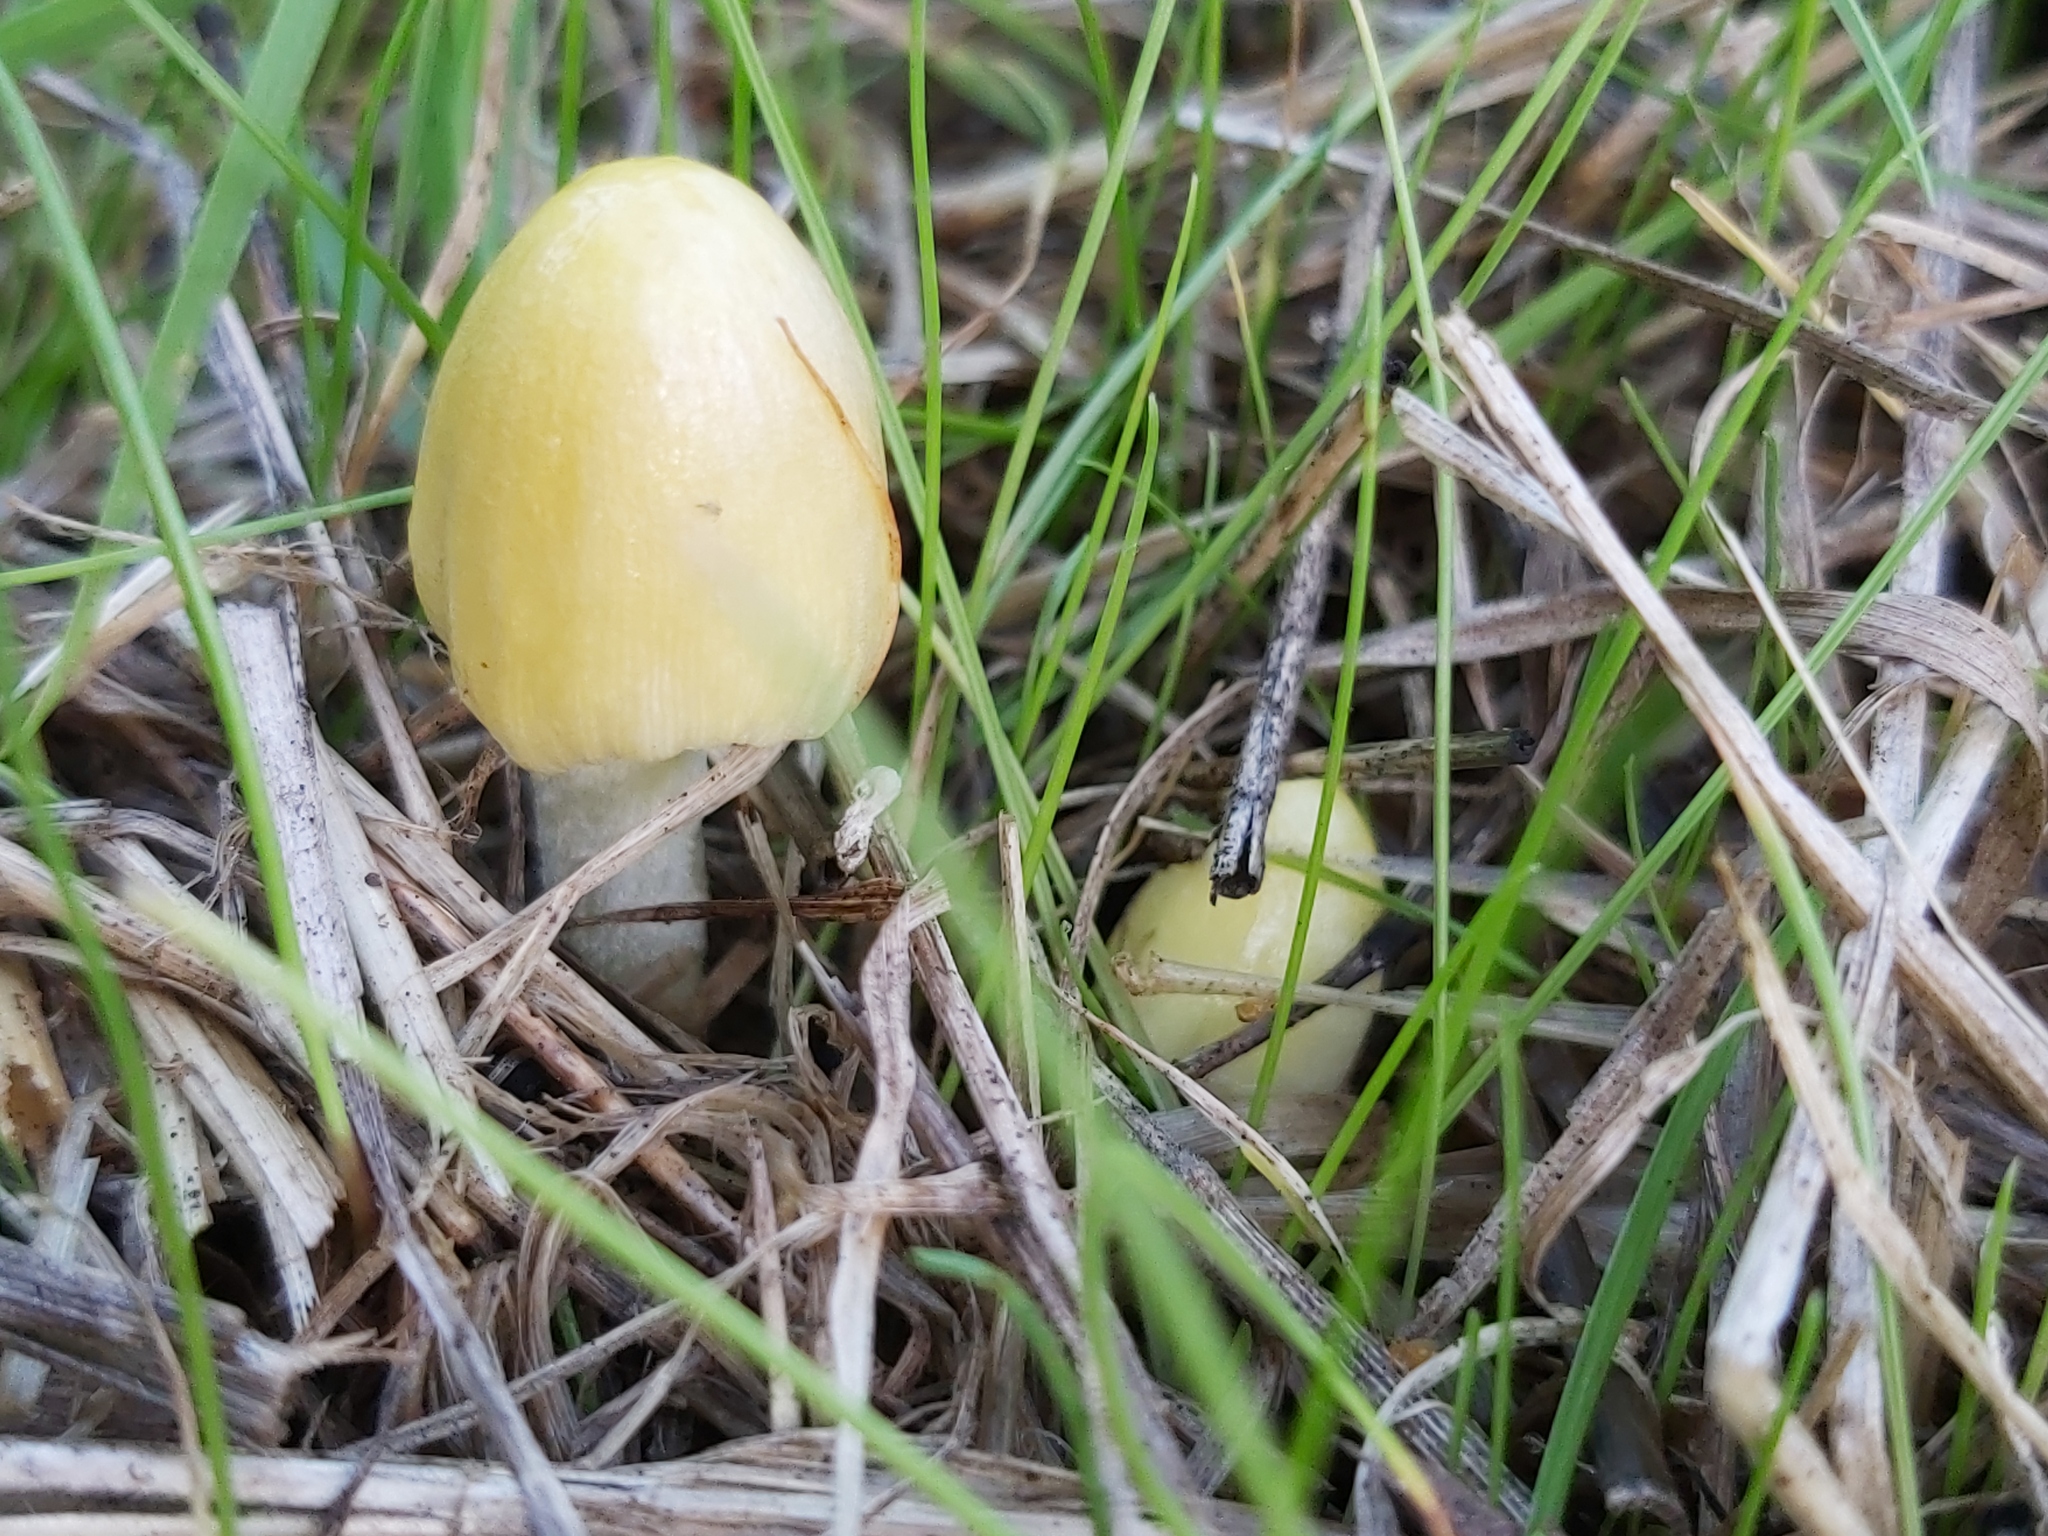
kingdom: Fungi
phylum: Basidiomycota
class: Agaricomycetes
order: Agaricales
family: Bolbitiaceae
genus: Bolbitius
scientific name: Bolbitius titubans
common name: Yellow fieldcap
